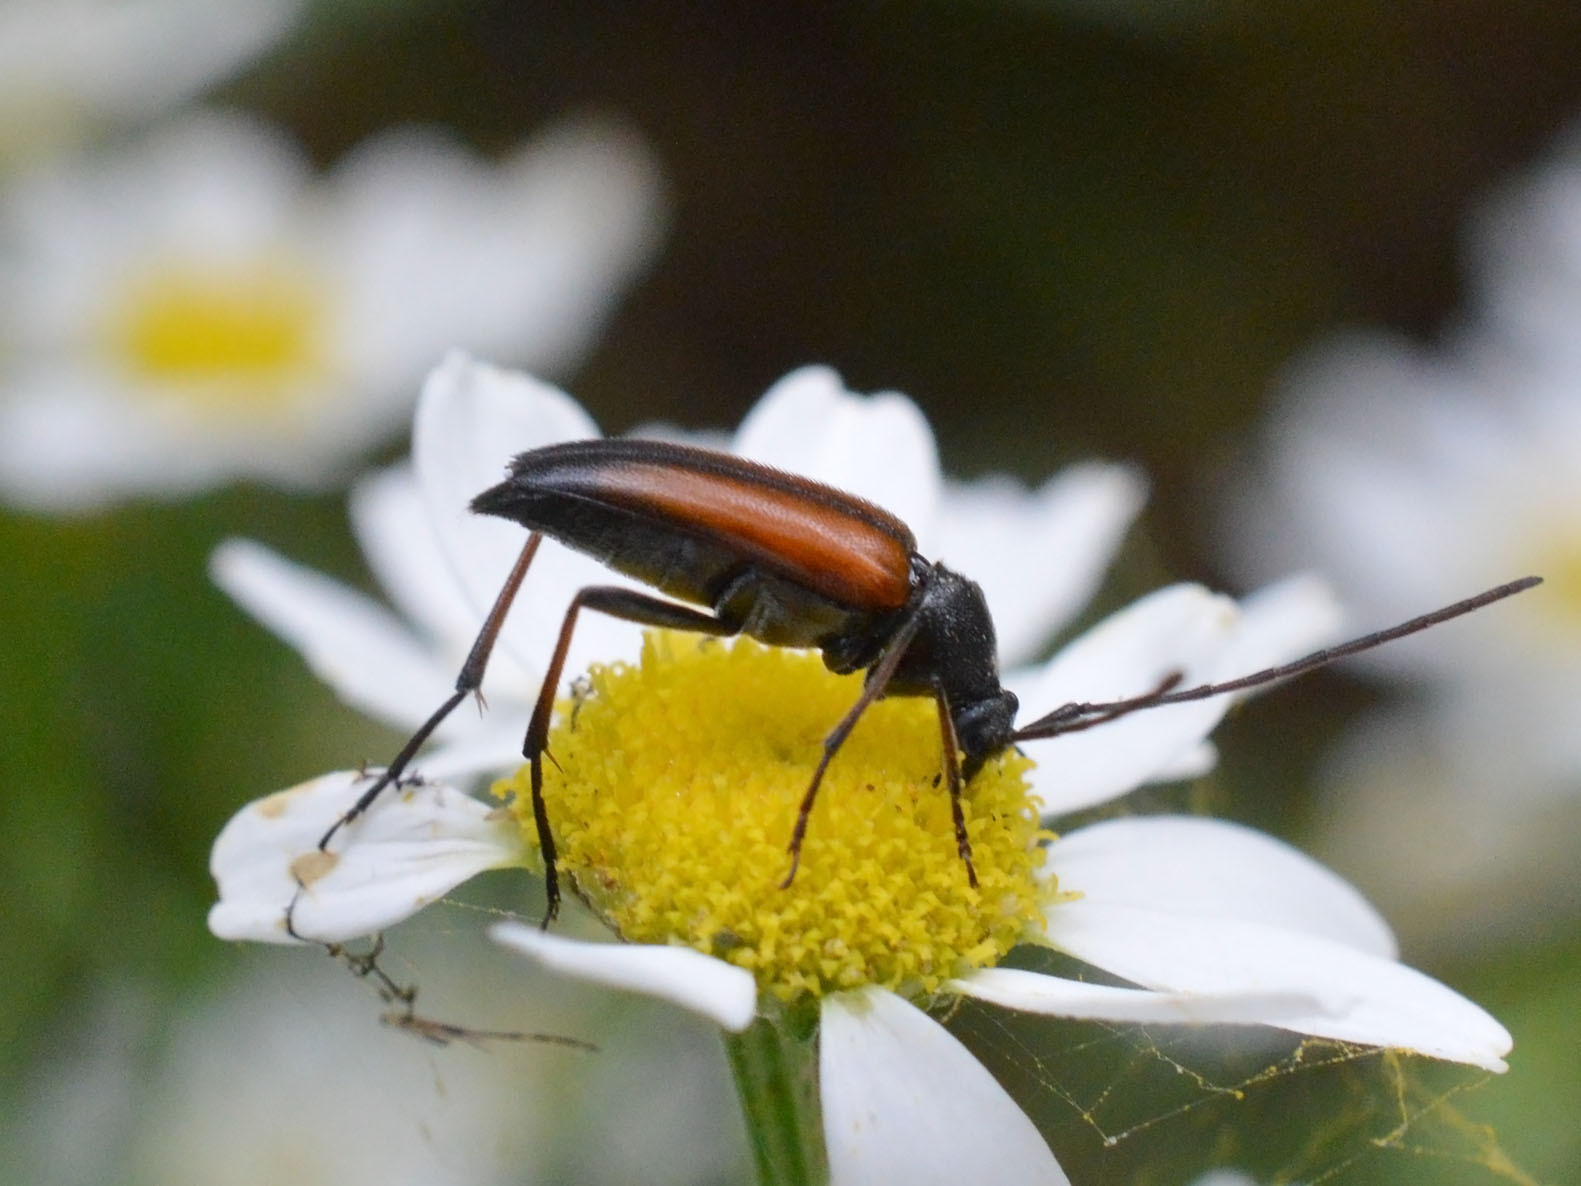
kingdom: Animalia
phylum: Arthropoda
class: Insecta
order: Coleoptera
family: Cerambycidae
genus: Stenurella
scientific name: Stenurella melanura
